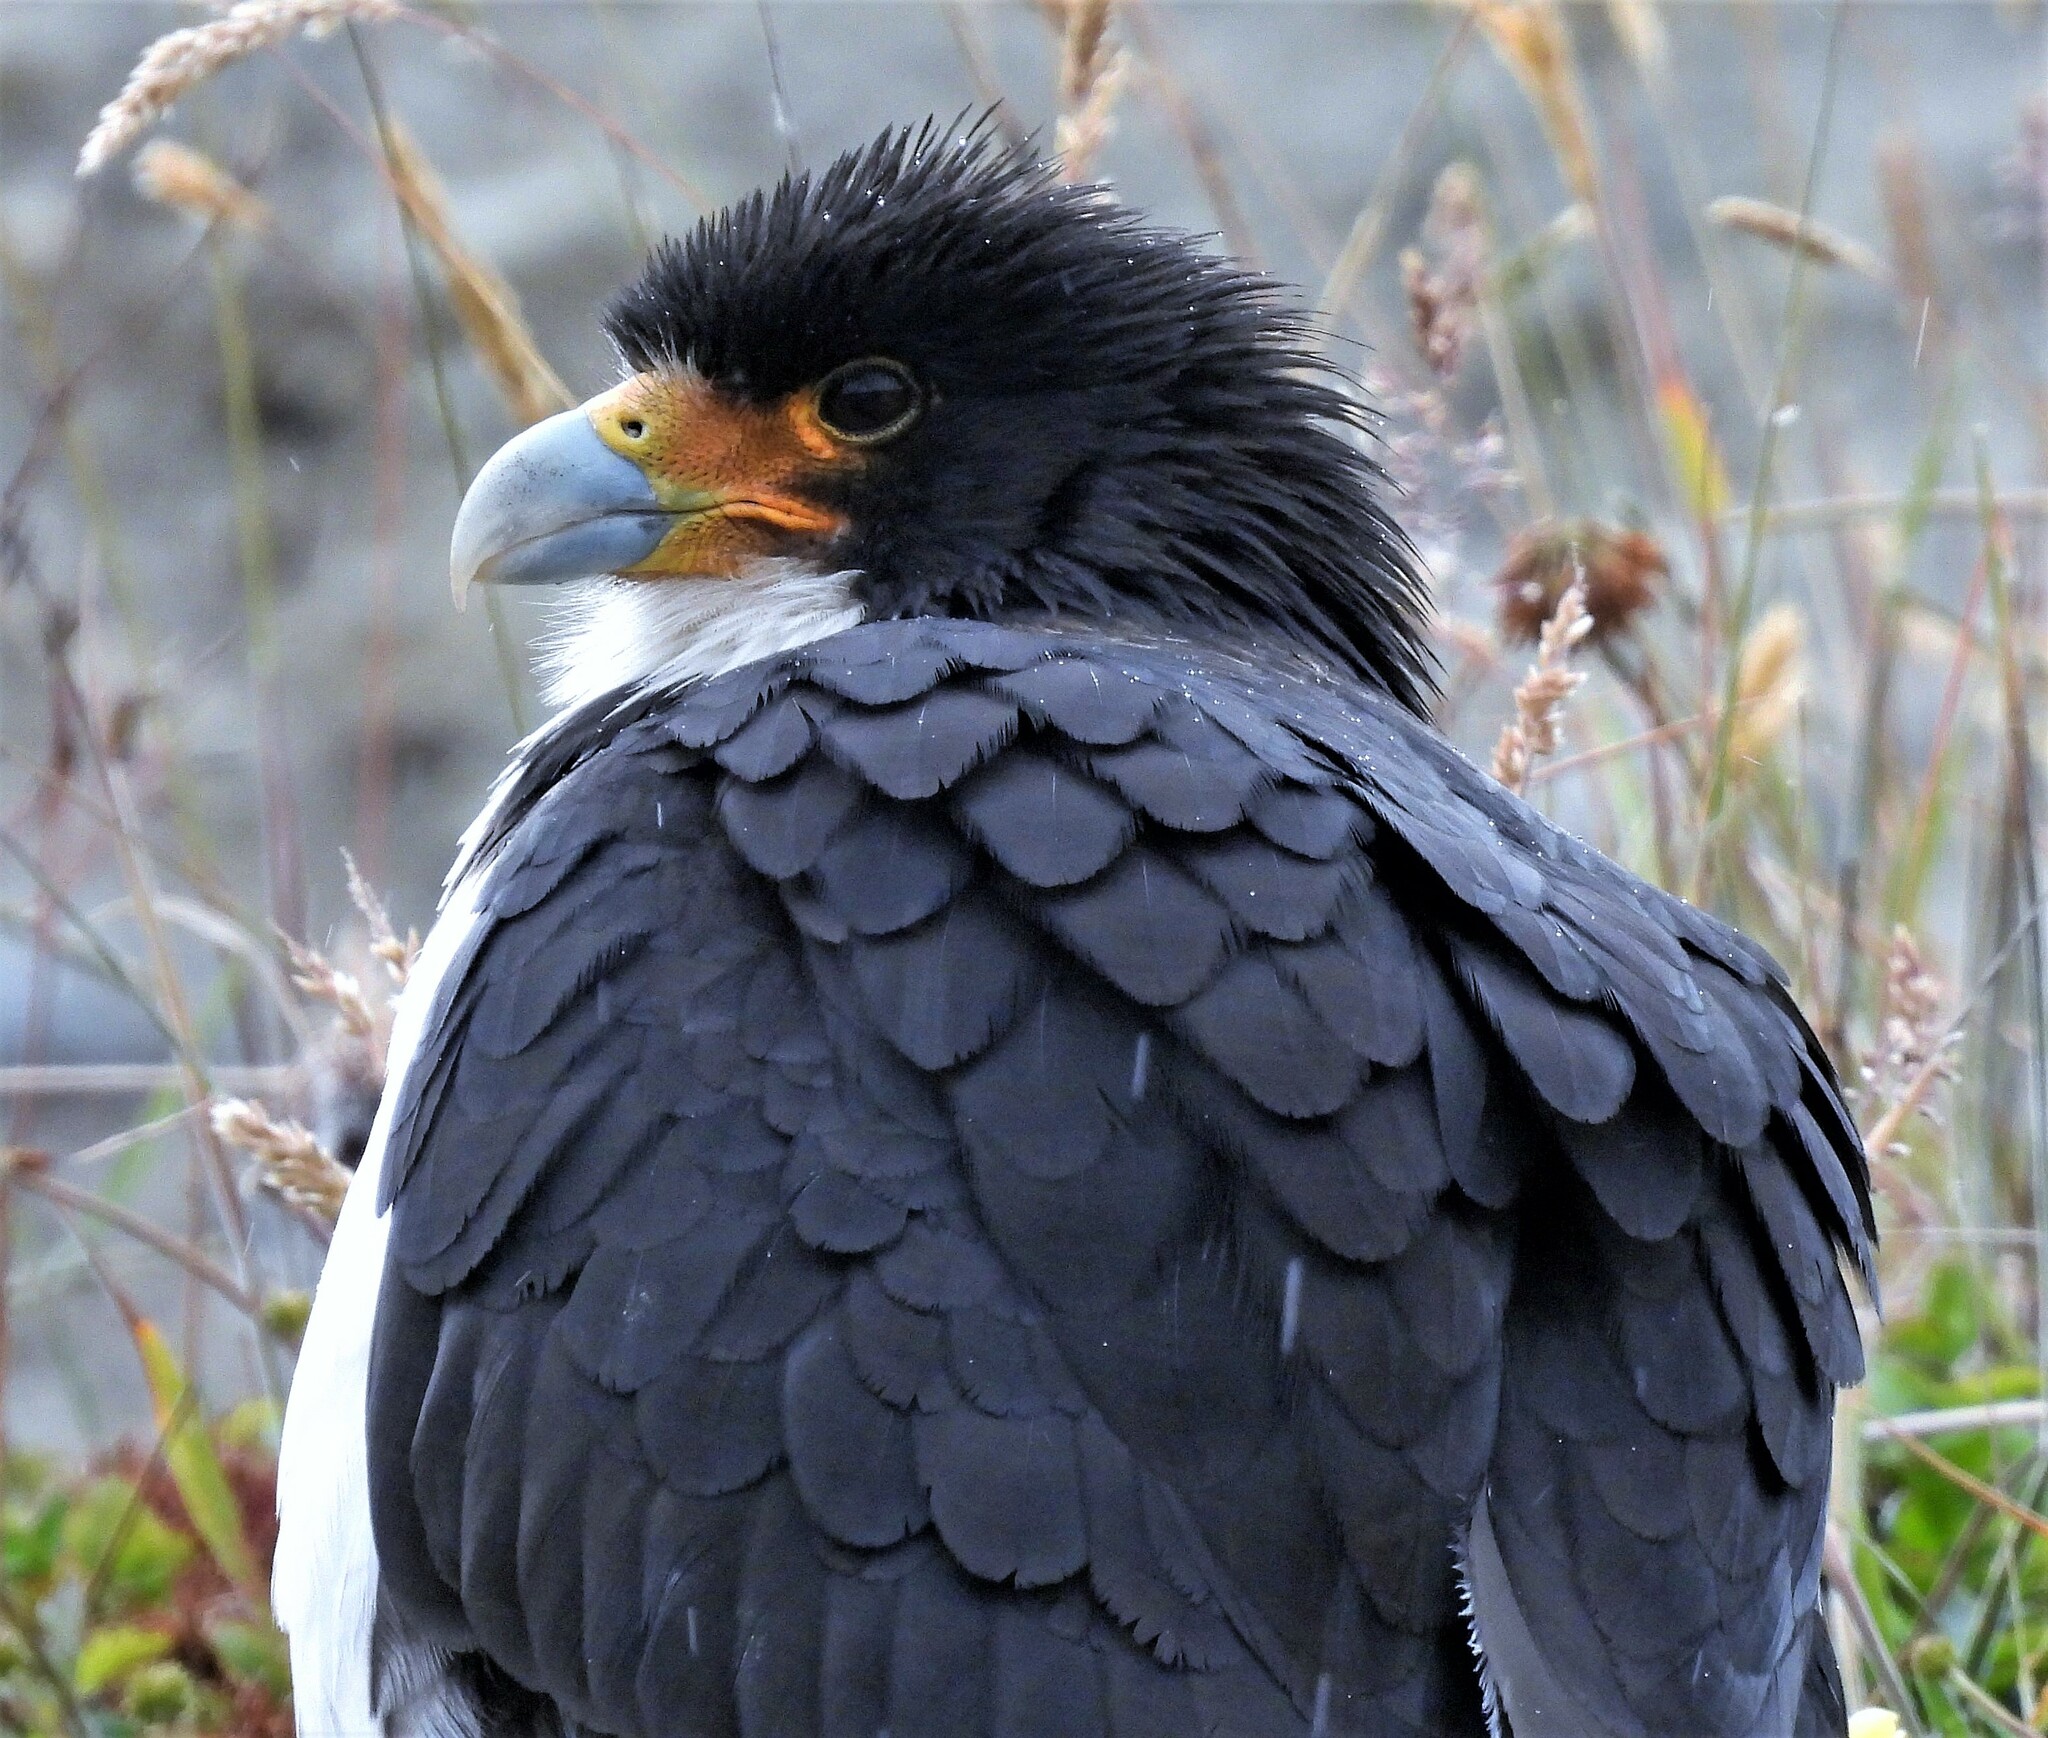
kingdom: Animalia
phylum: Chordata
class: Aves
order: Falconiformes
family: Falconidae
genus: Daptrius
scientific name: Daptrius
